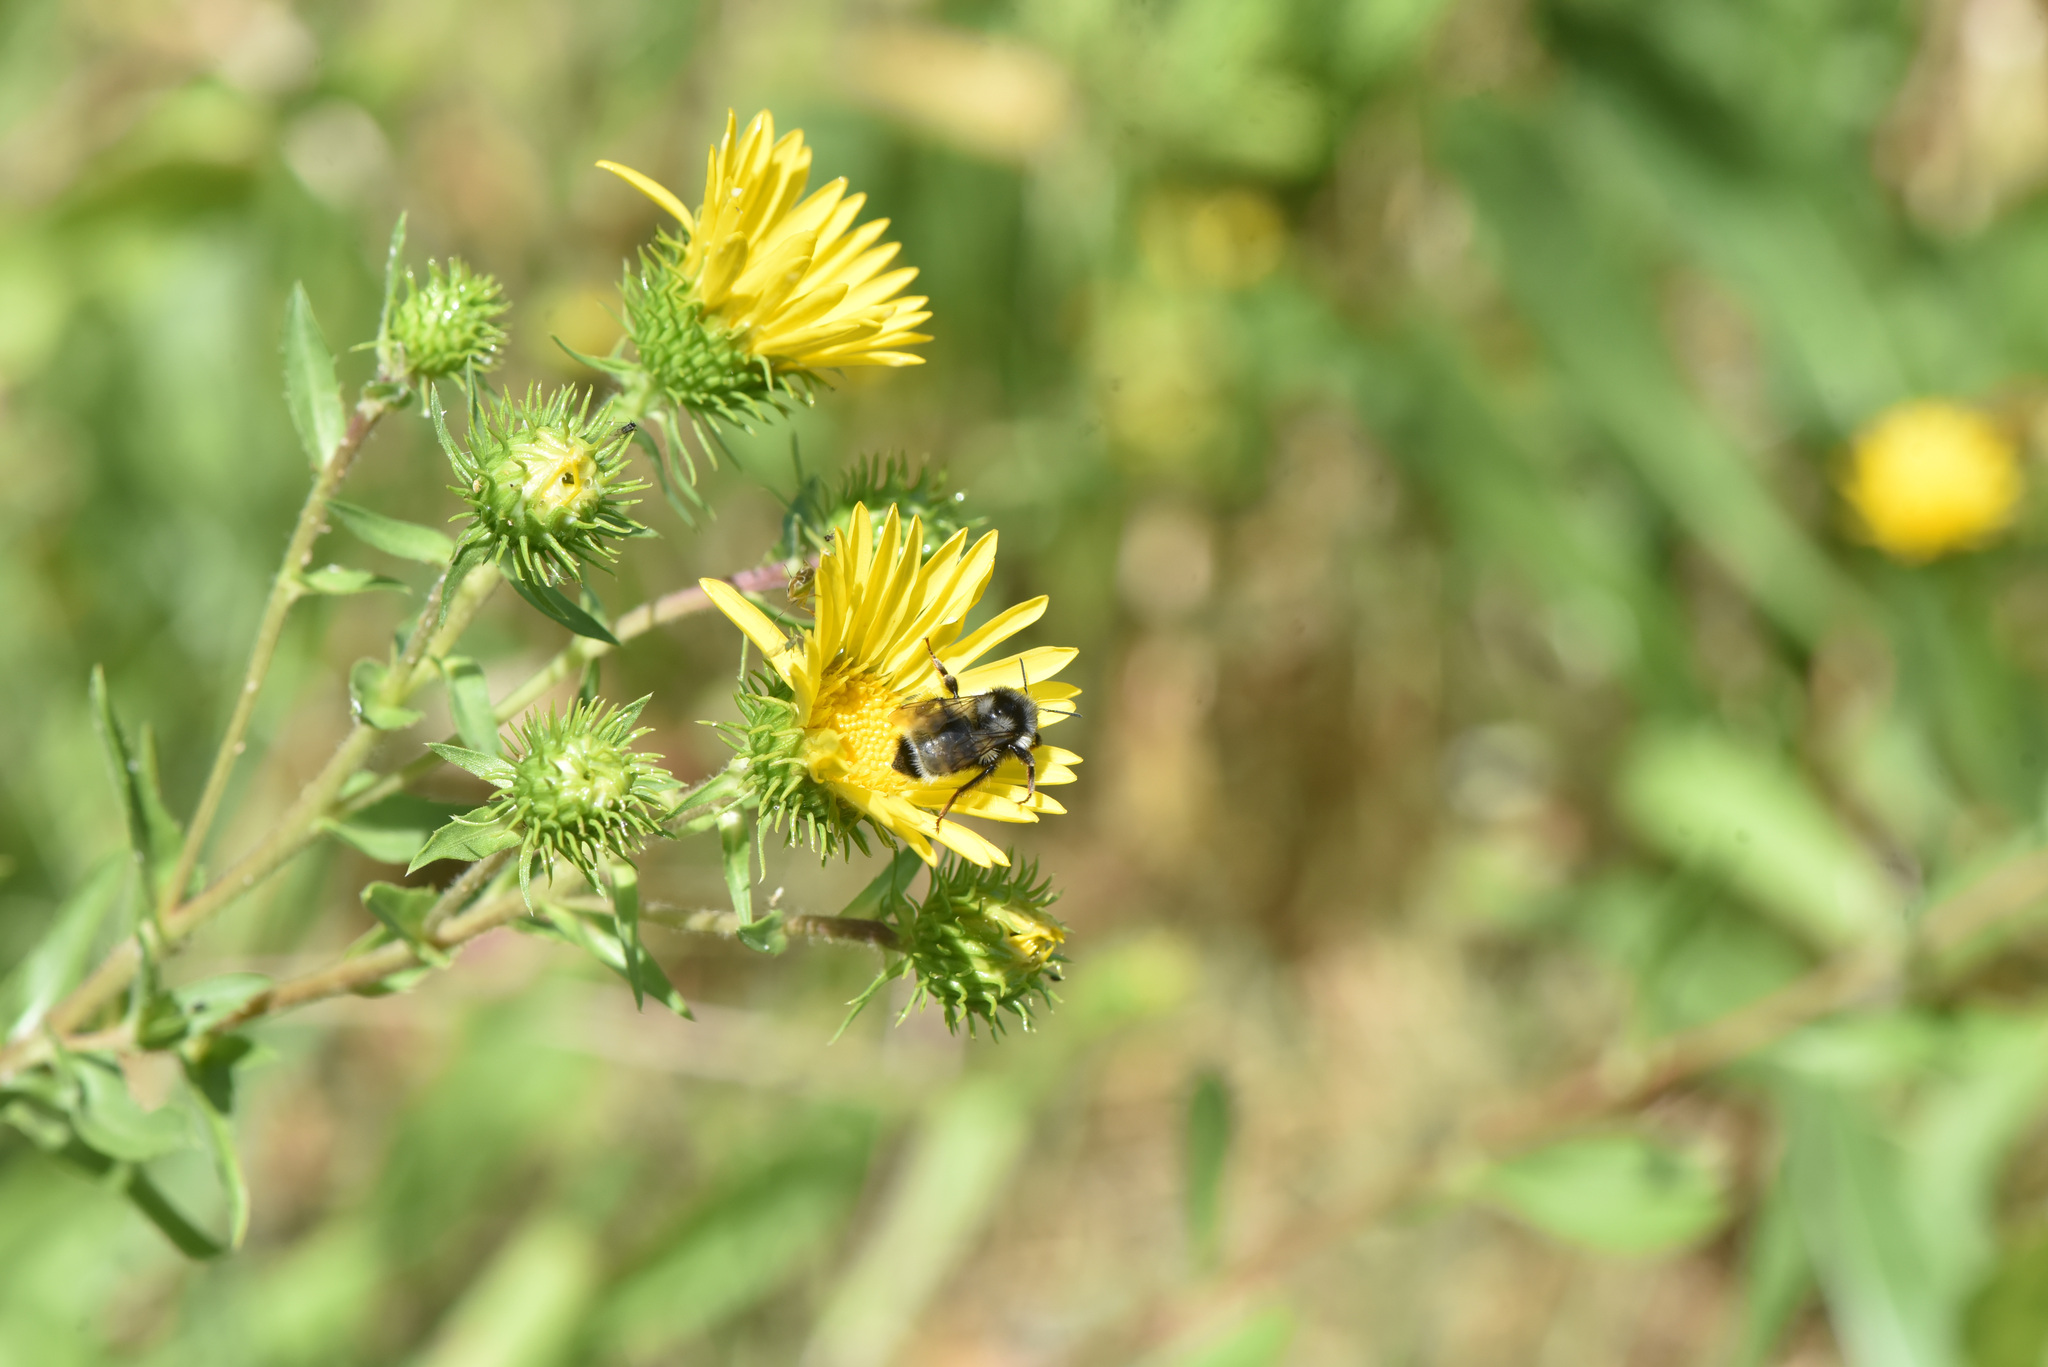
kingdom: Animalia
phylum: Arthropoda
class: Insecta
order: Hymenoptera
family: Apidae
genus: Bombus
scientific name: Bombus vancouverensis
